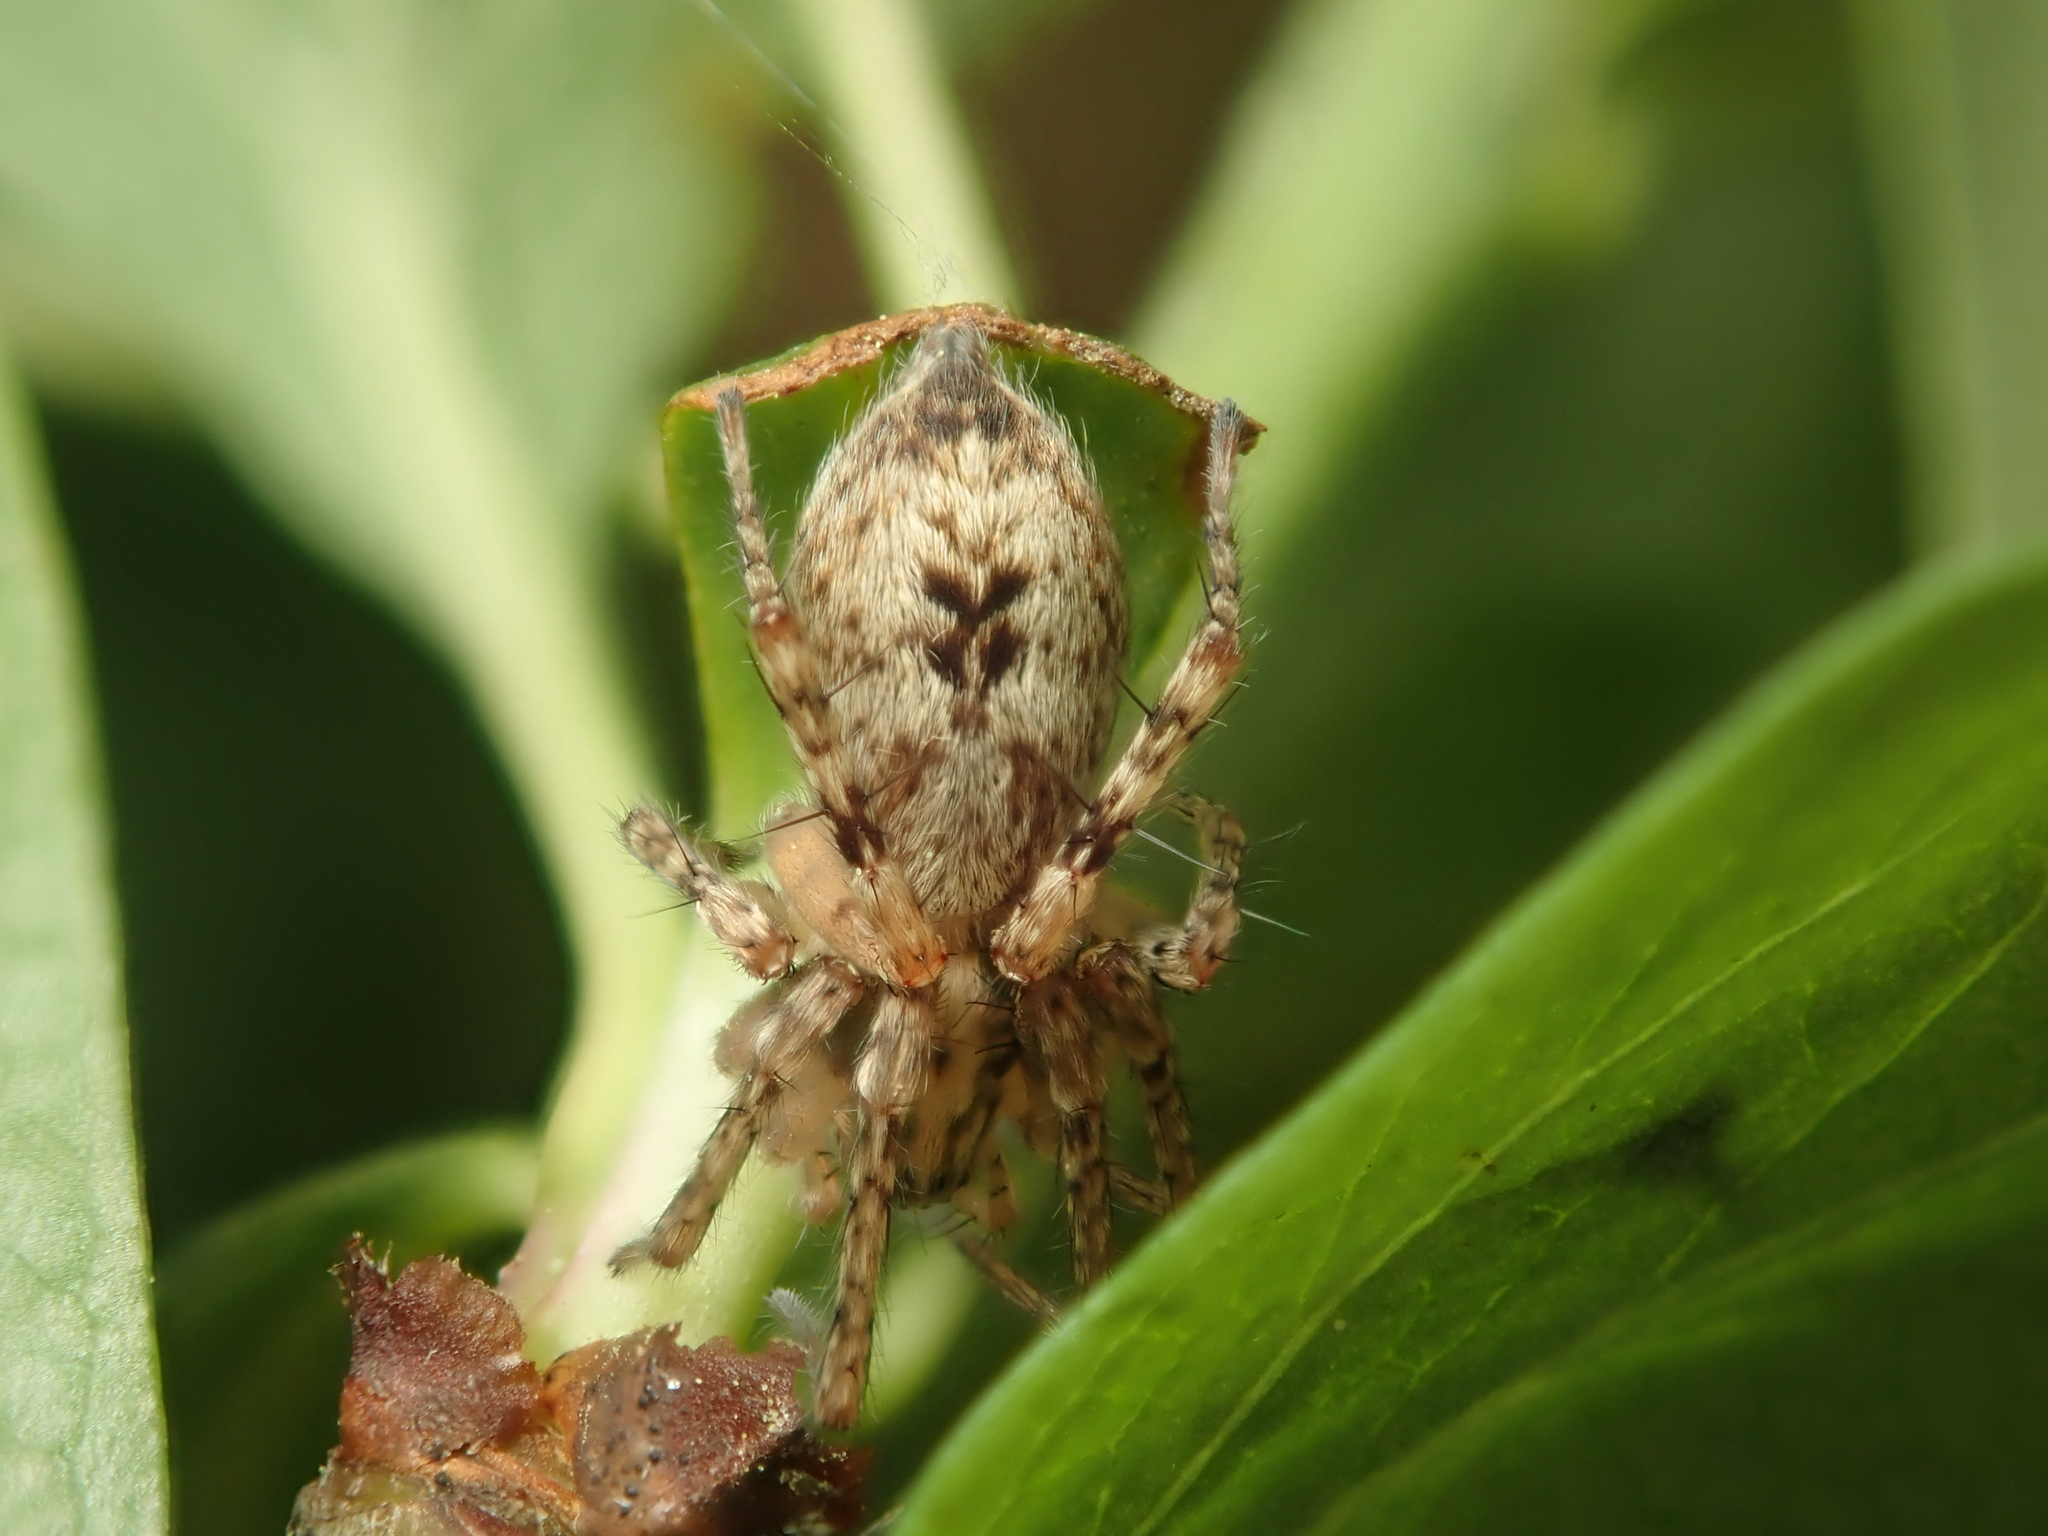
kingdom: Animalia
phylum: Arthropoda
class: Arachnida
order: Araneae
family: Anyphaenidae
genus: Anyphaena
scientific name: Anyphaena accentuata
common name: Buzzing spider
